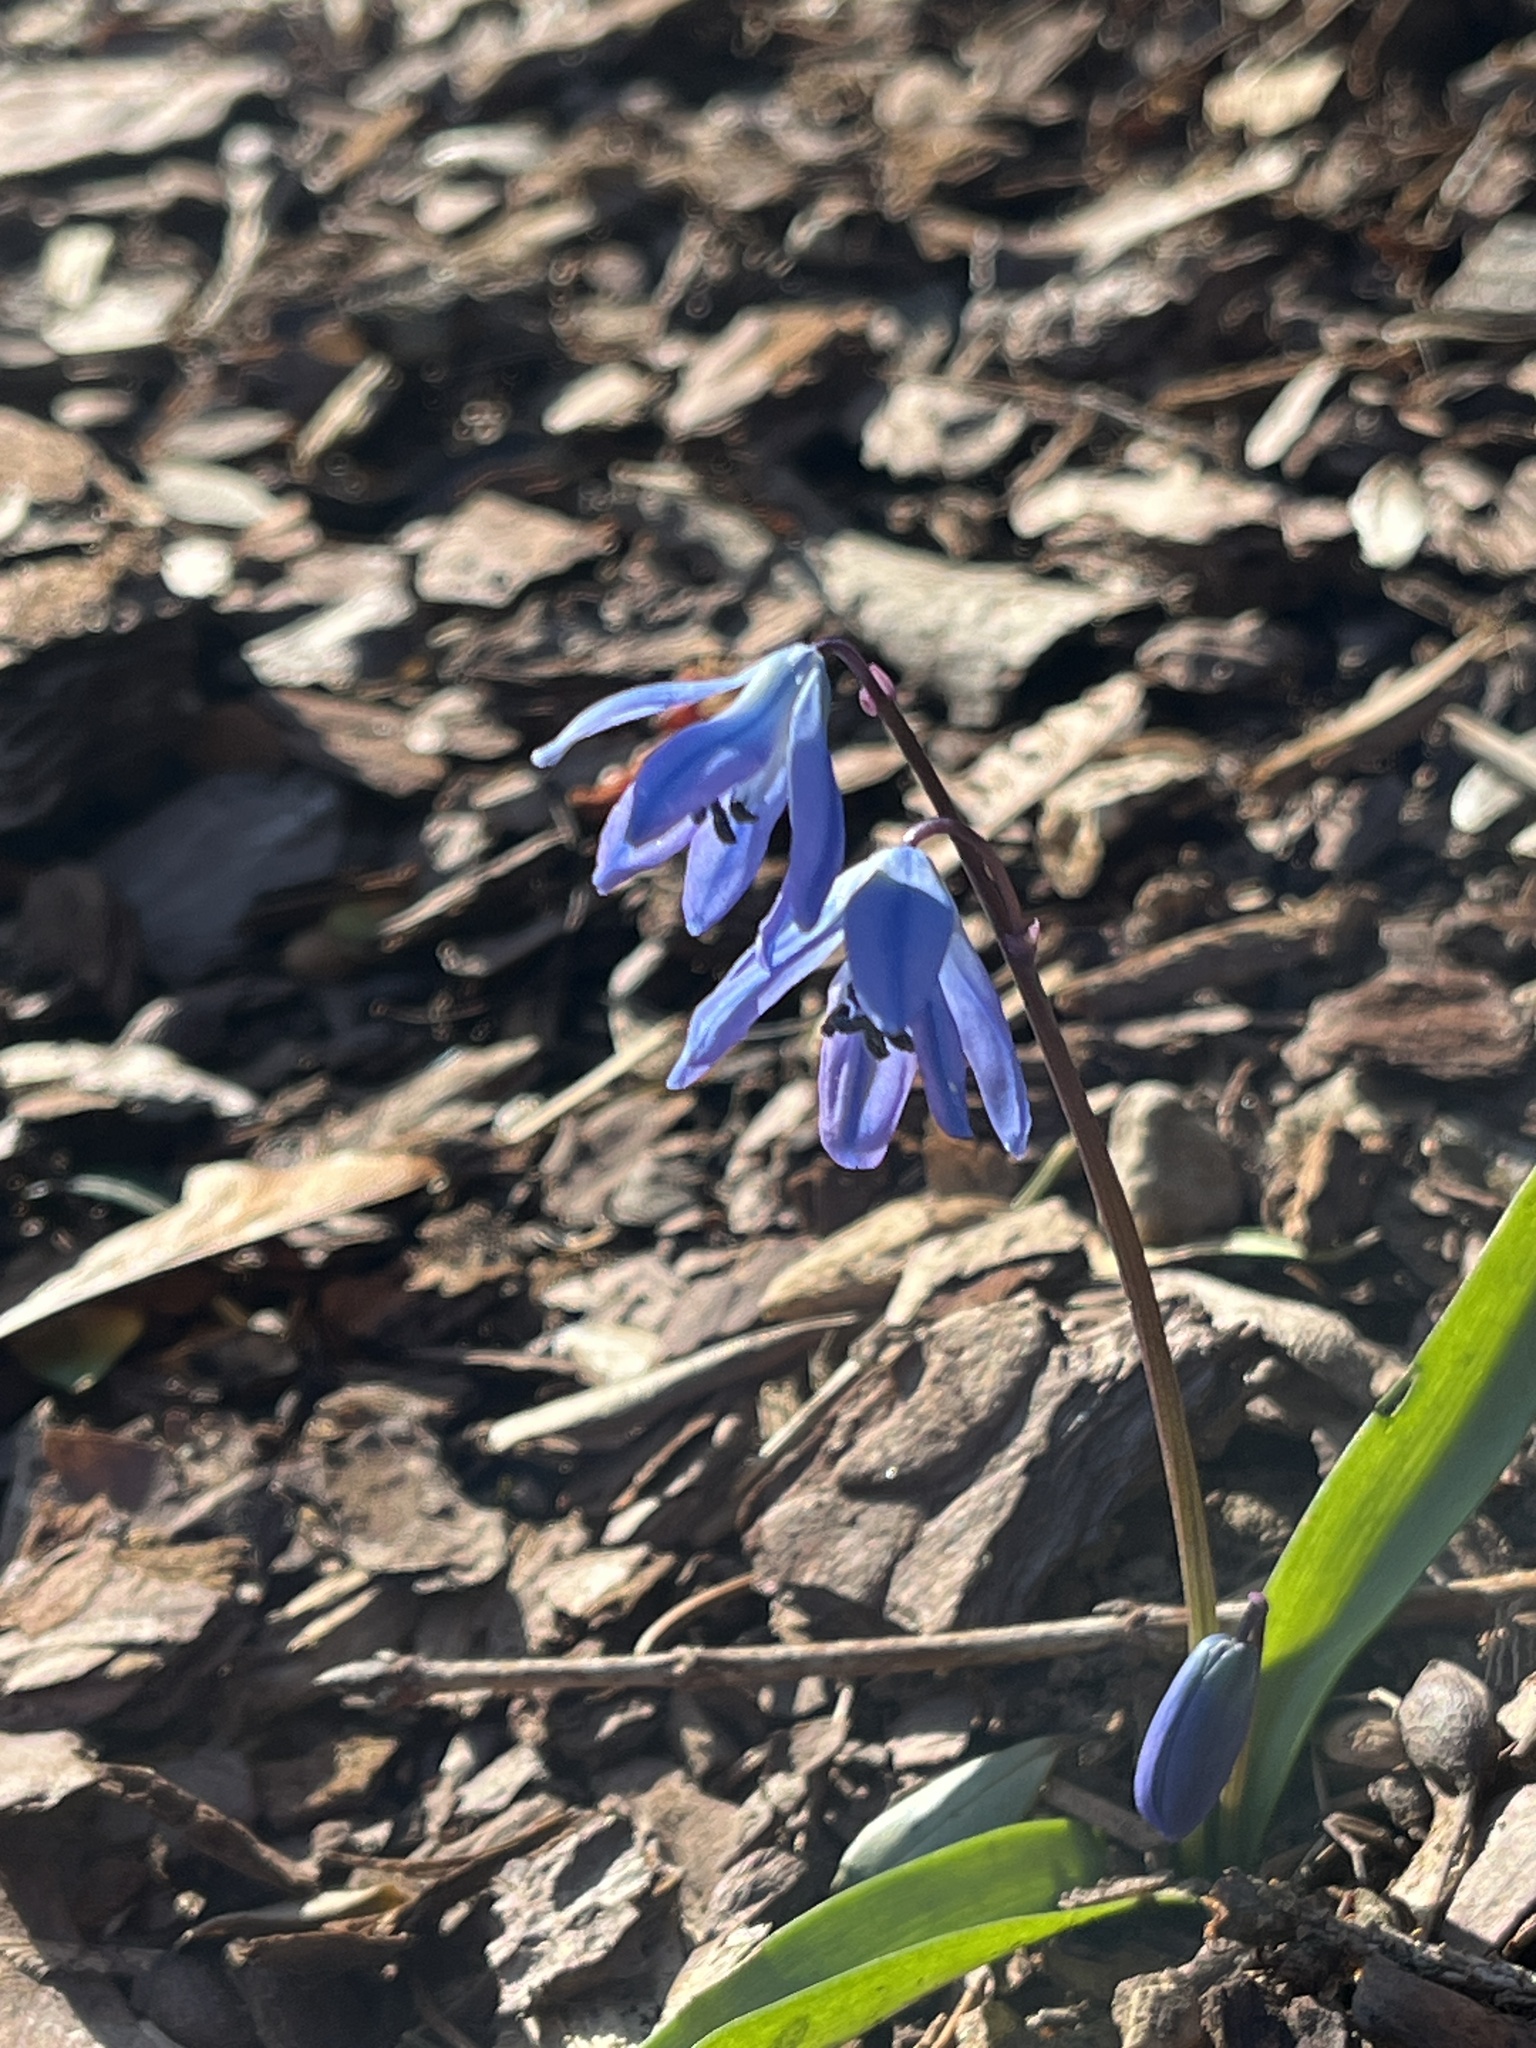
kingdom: Plantae
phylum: Tracheophyta
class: Liliopsida
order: Asparagales
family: Asparagaceae
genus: Scilla
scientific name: Scilla siberica
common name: Siberian squill
